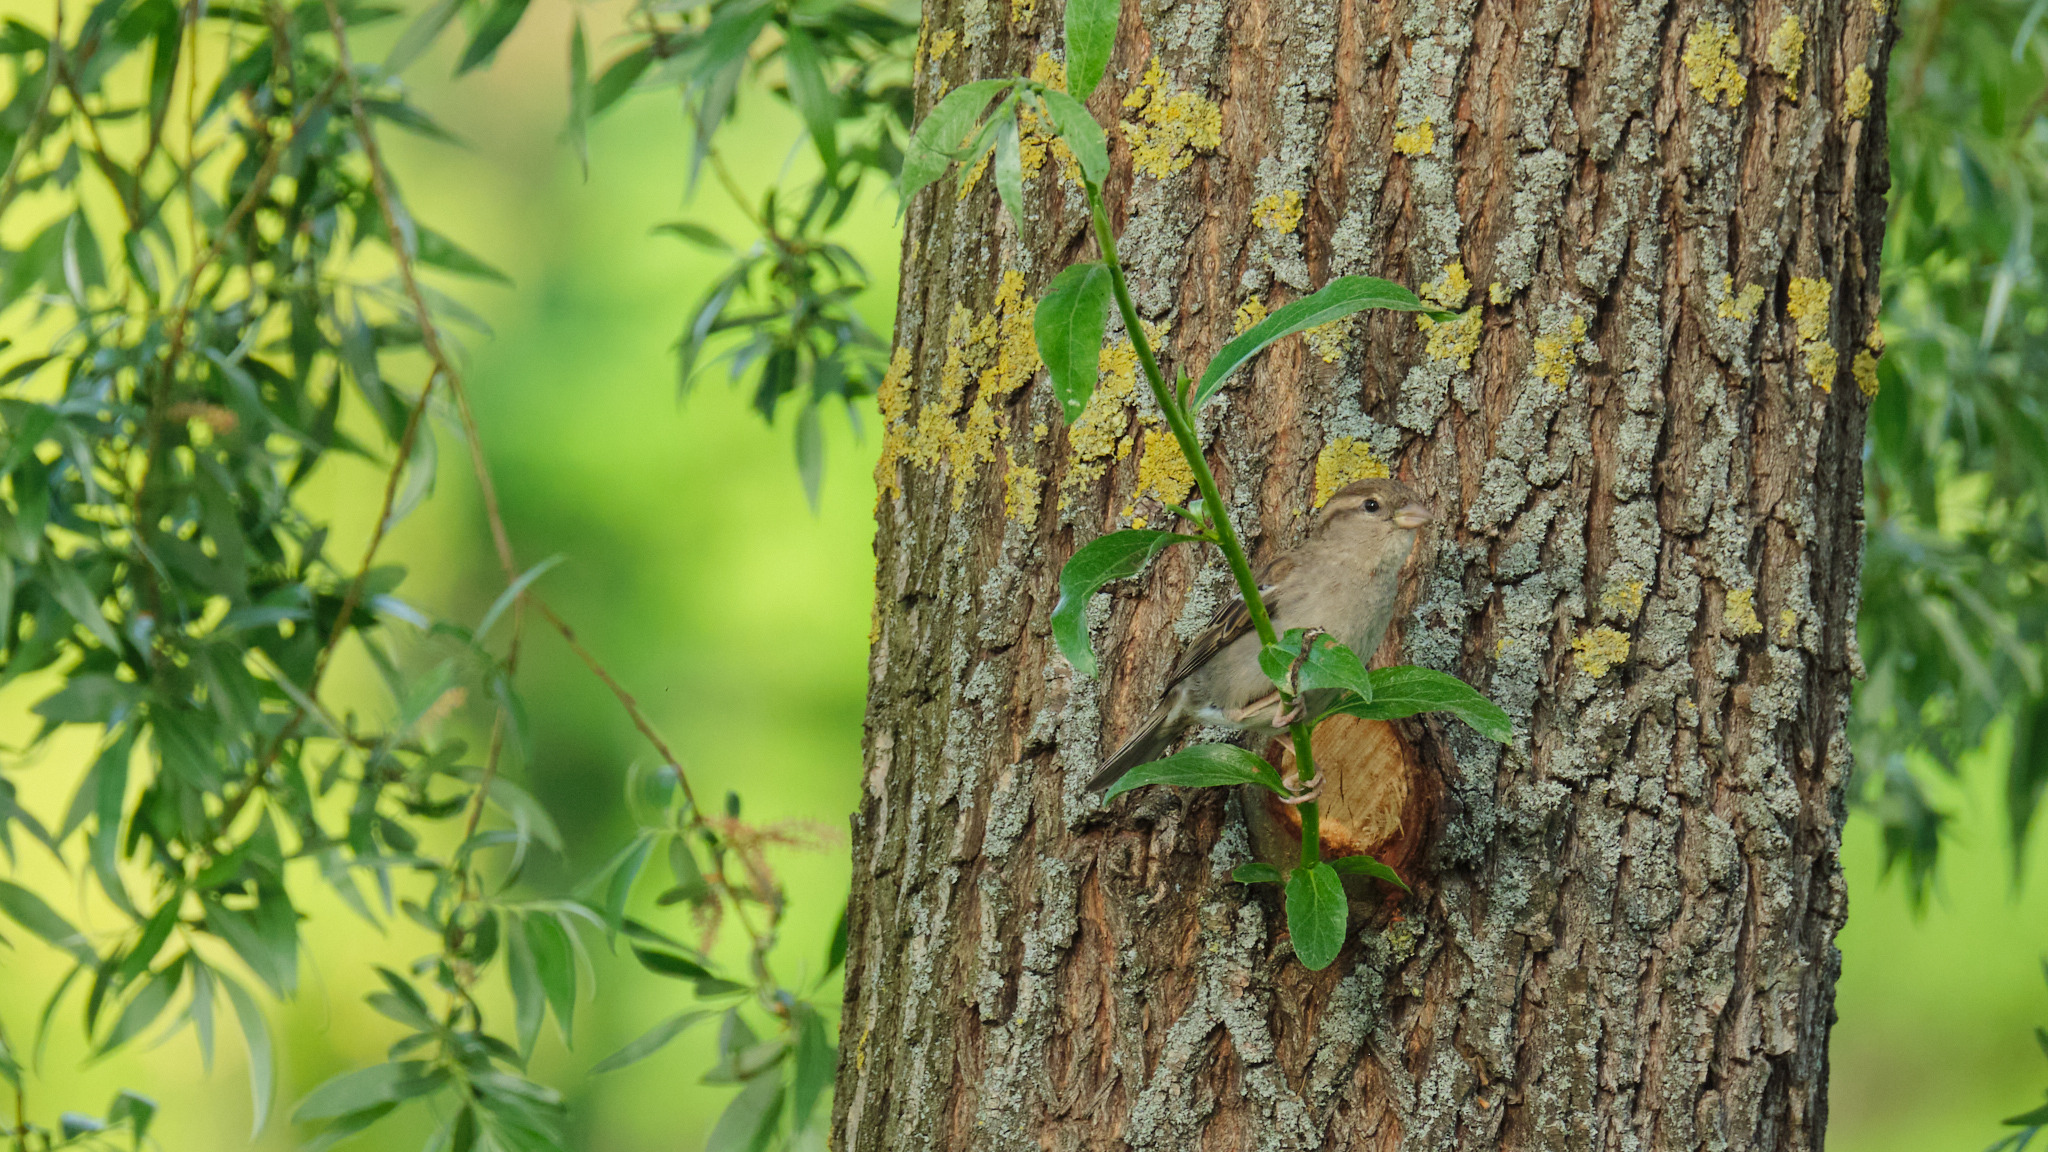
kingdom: Animalia
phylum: Chordata
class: Aves
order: Passeriformes
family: Passeridae
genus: Passer
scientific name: Passer domesticus
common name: House sparrow
